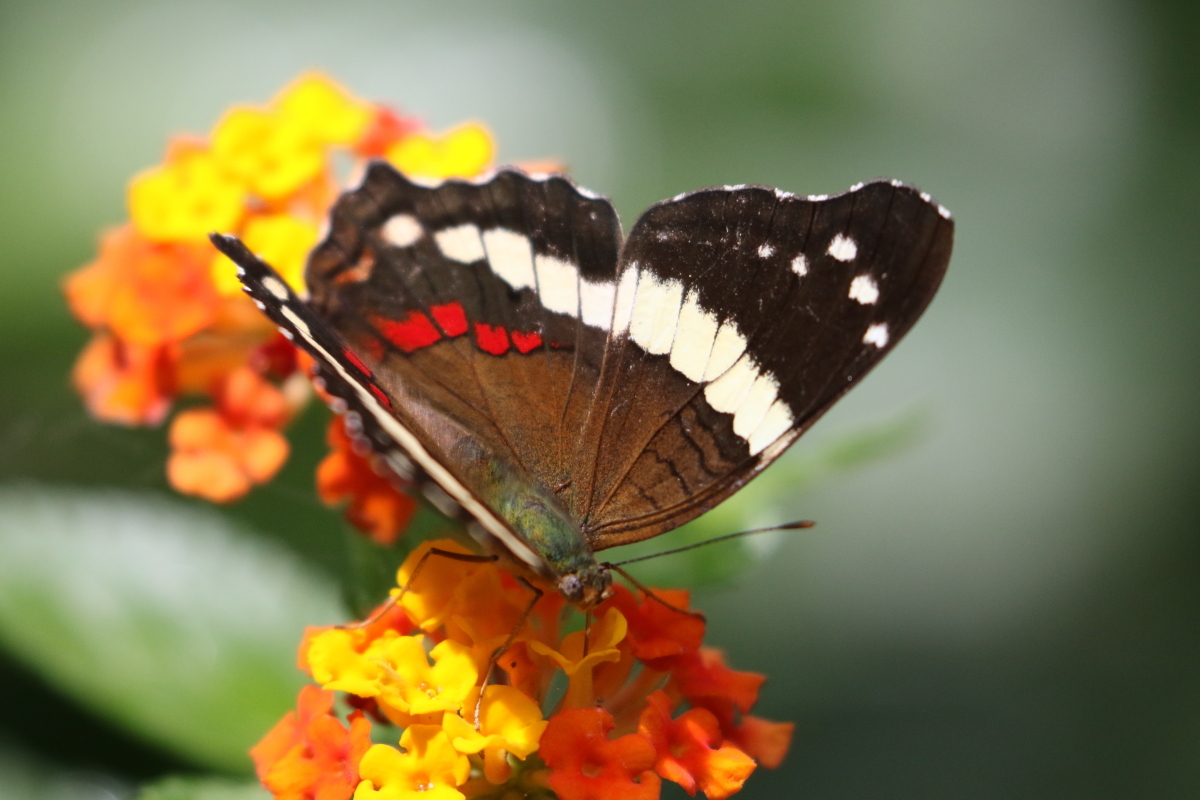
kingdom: Animalia
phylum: Arthropoda
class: Insecta
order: Lepidoptera
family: Nymphalidae
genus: Anartia
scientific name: Anartia fatima
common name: Banded peacock
